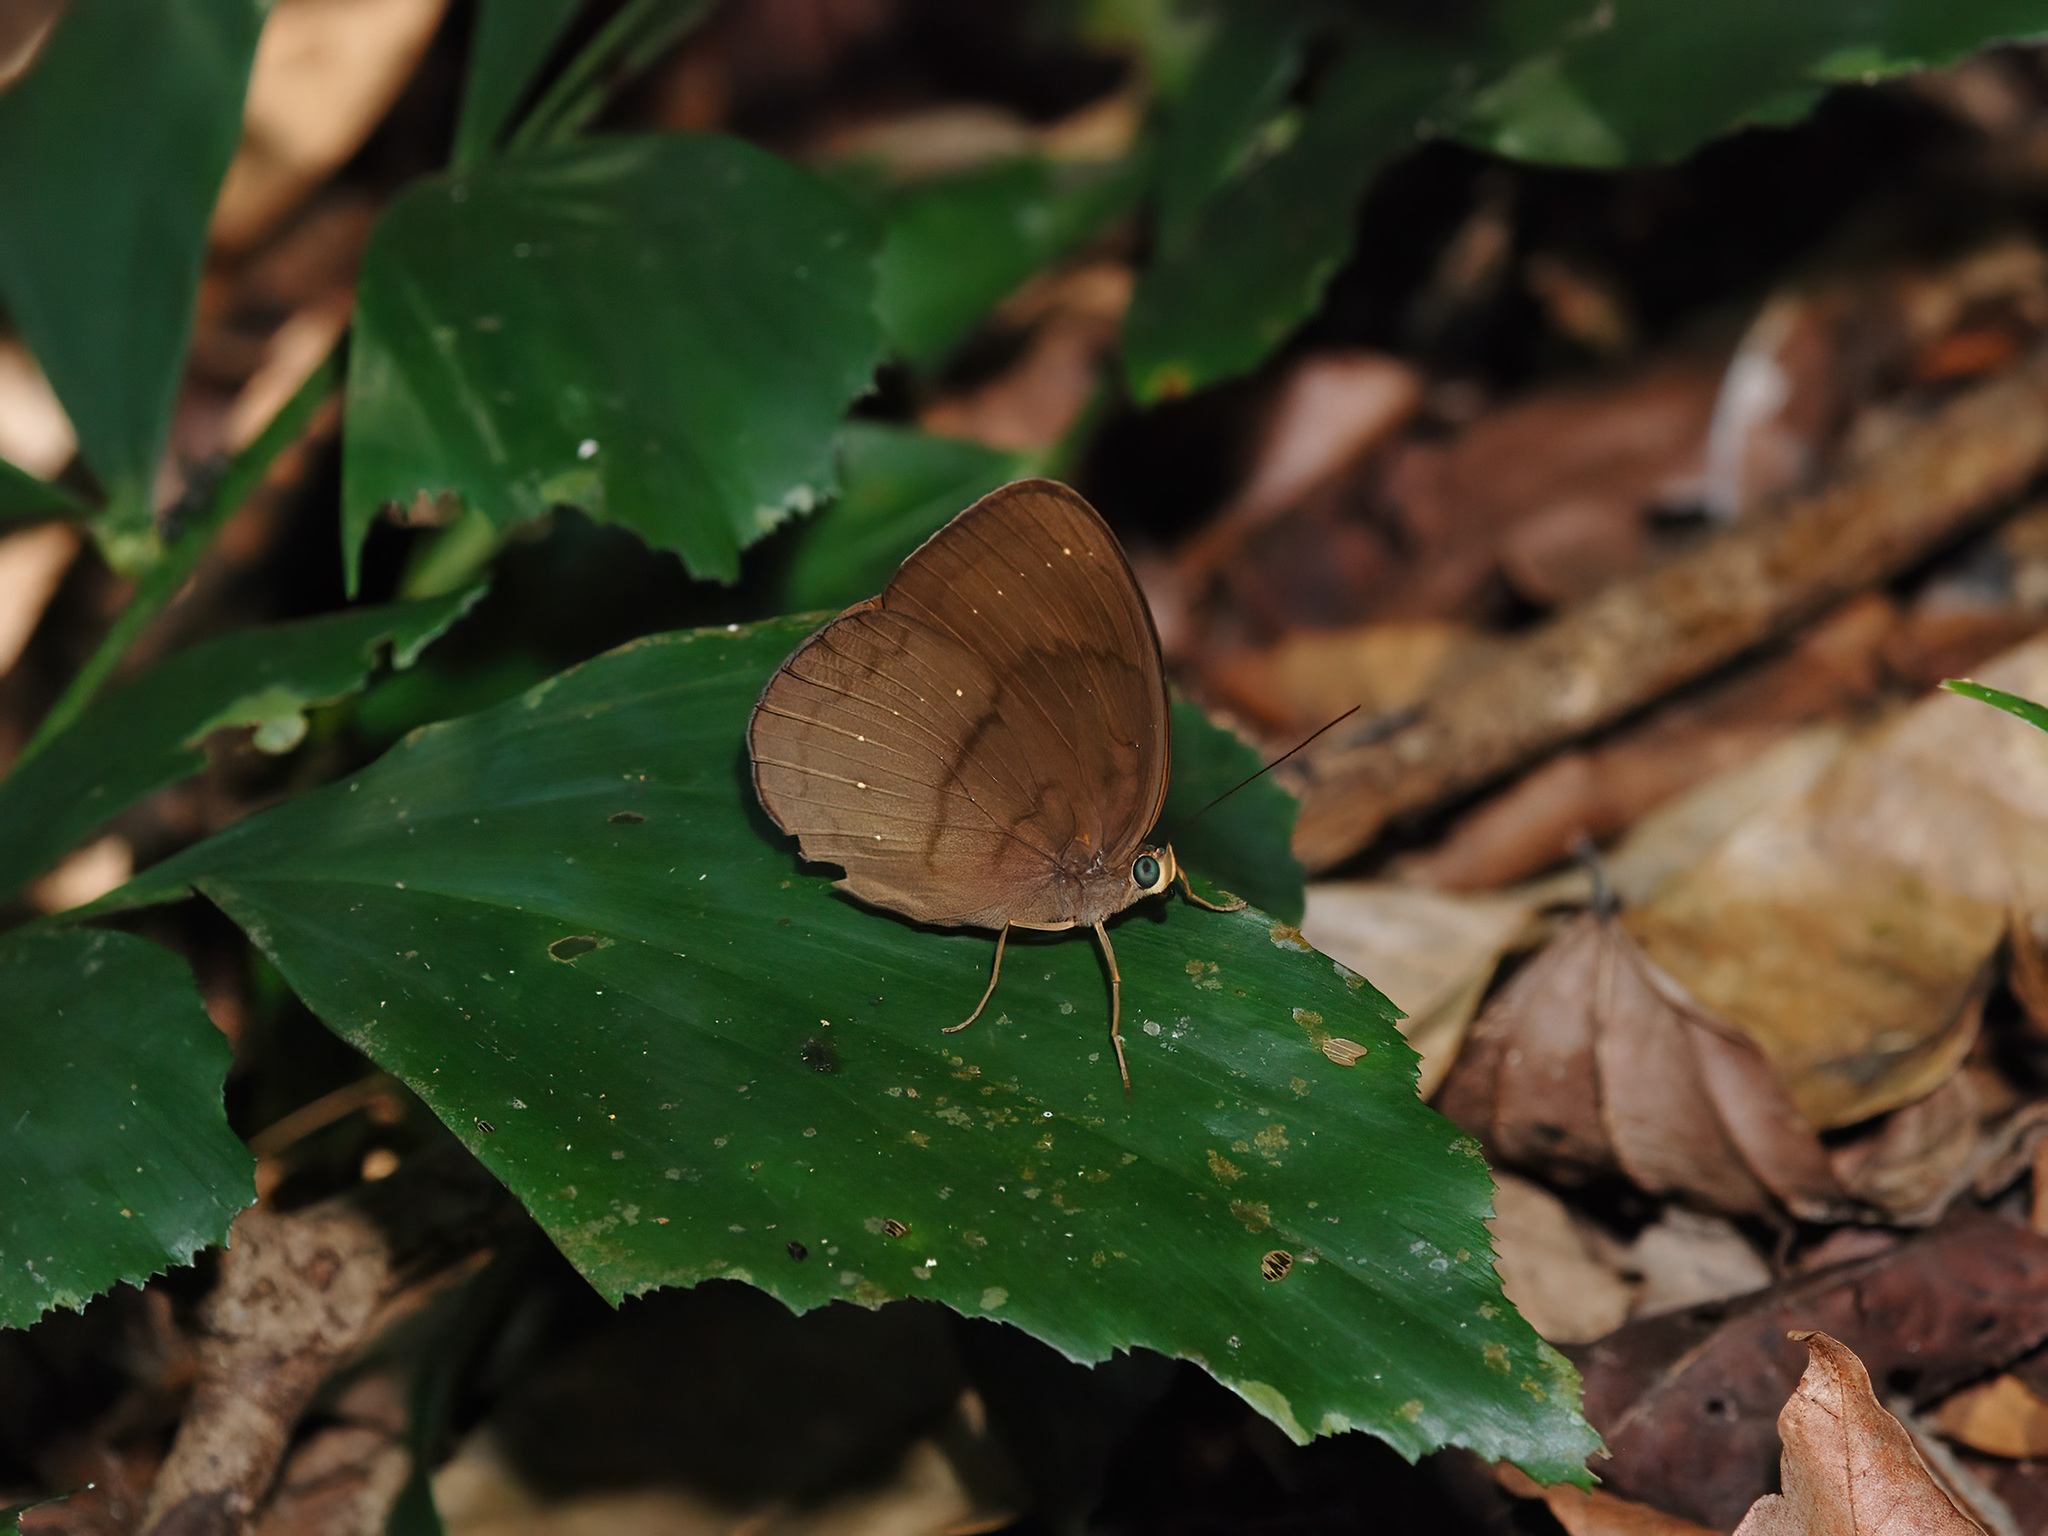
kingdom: Animalia
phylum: Arthropoda
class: Insecta
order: Lepidoptera
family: Nymphalidae
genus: Faunis
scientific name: Faunis canens
